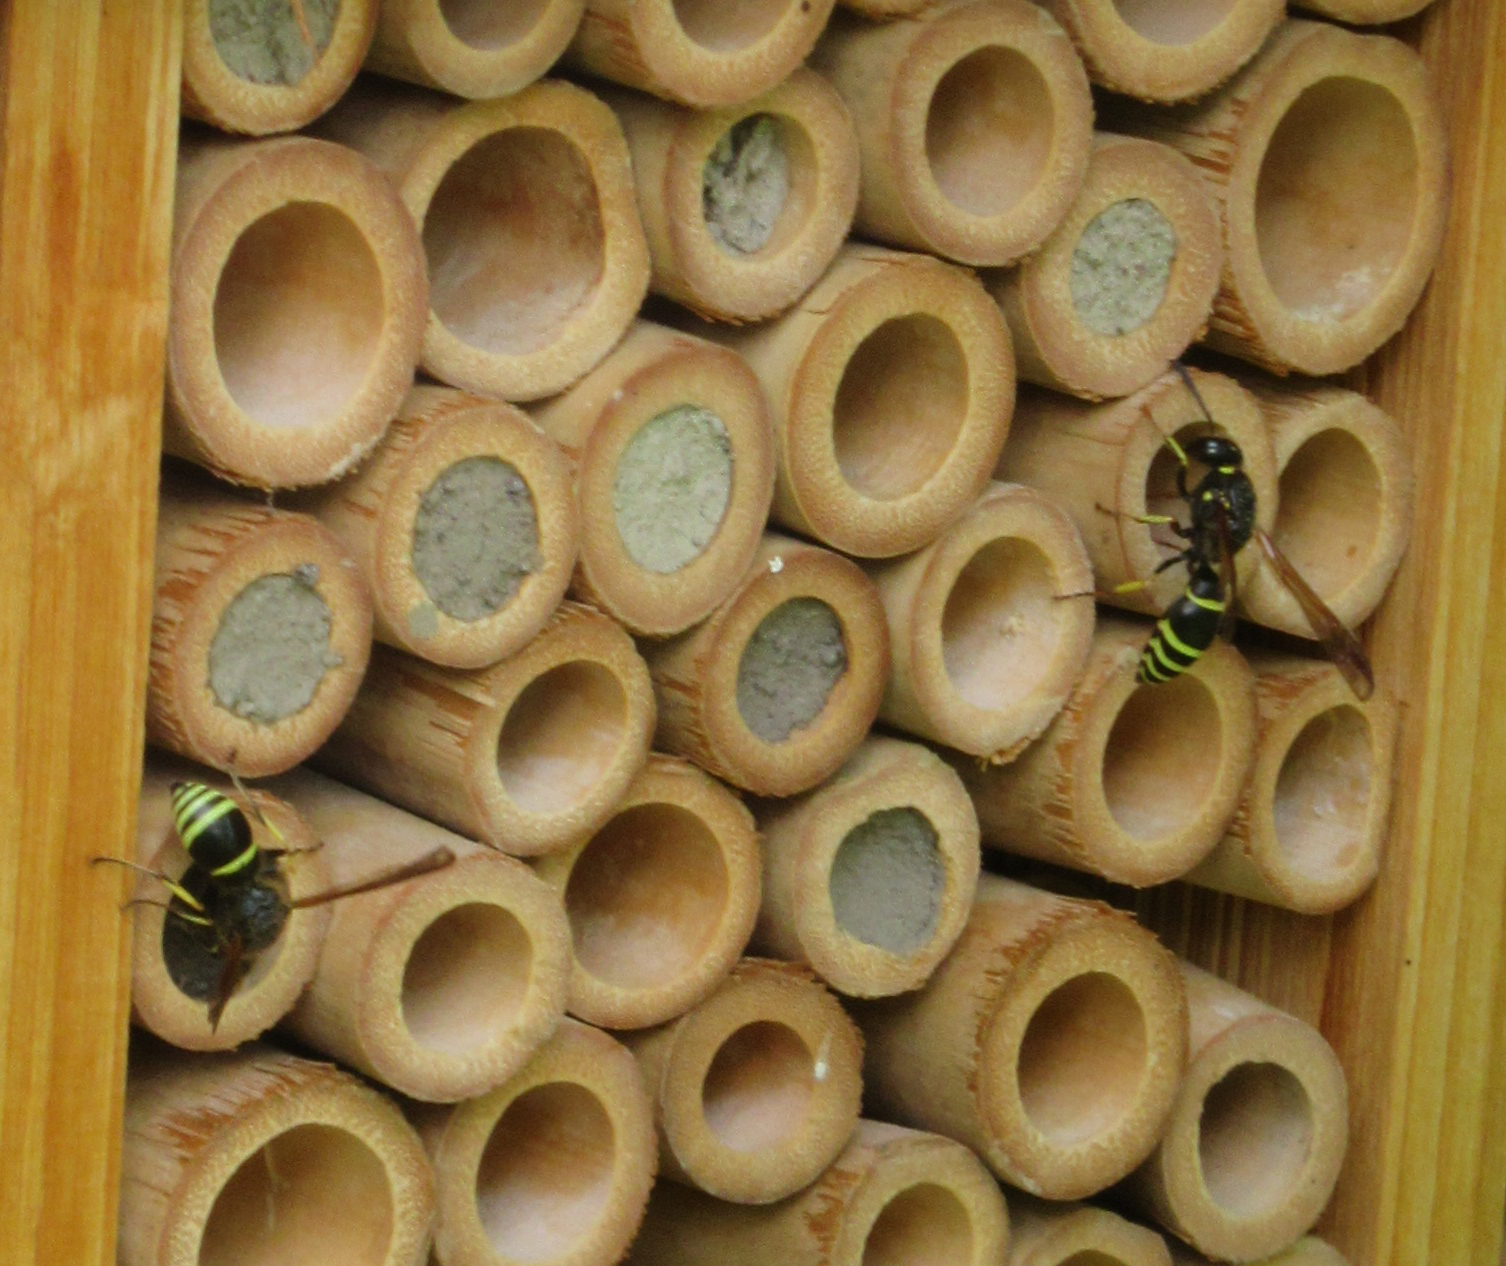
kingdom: Animalia
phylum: Arthropoda
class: Insecta
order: Hymenoptera
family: Vespidae
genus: Ancistrocerus
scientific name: Ancistrocerus
